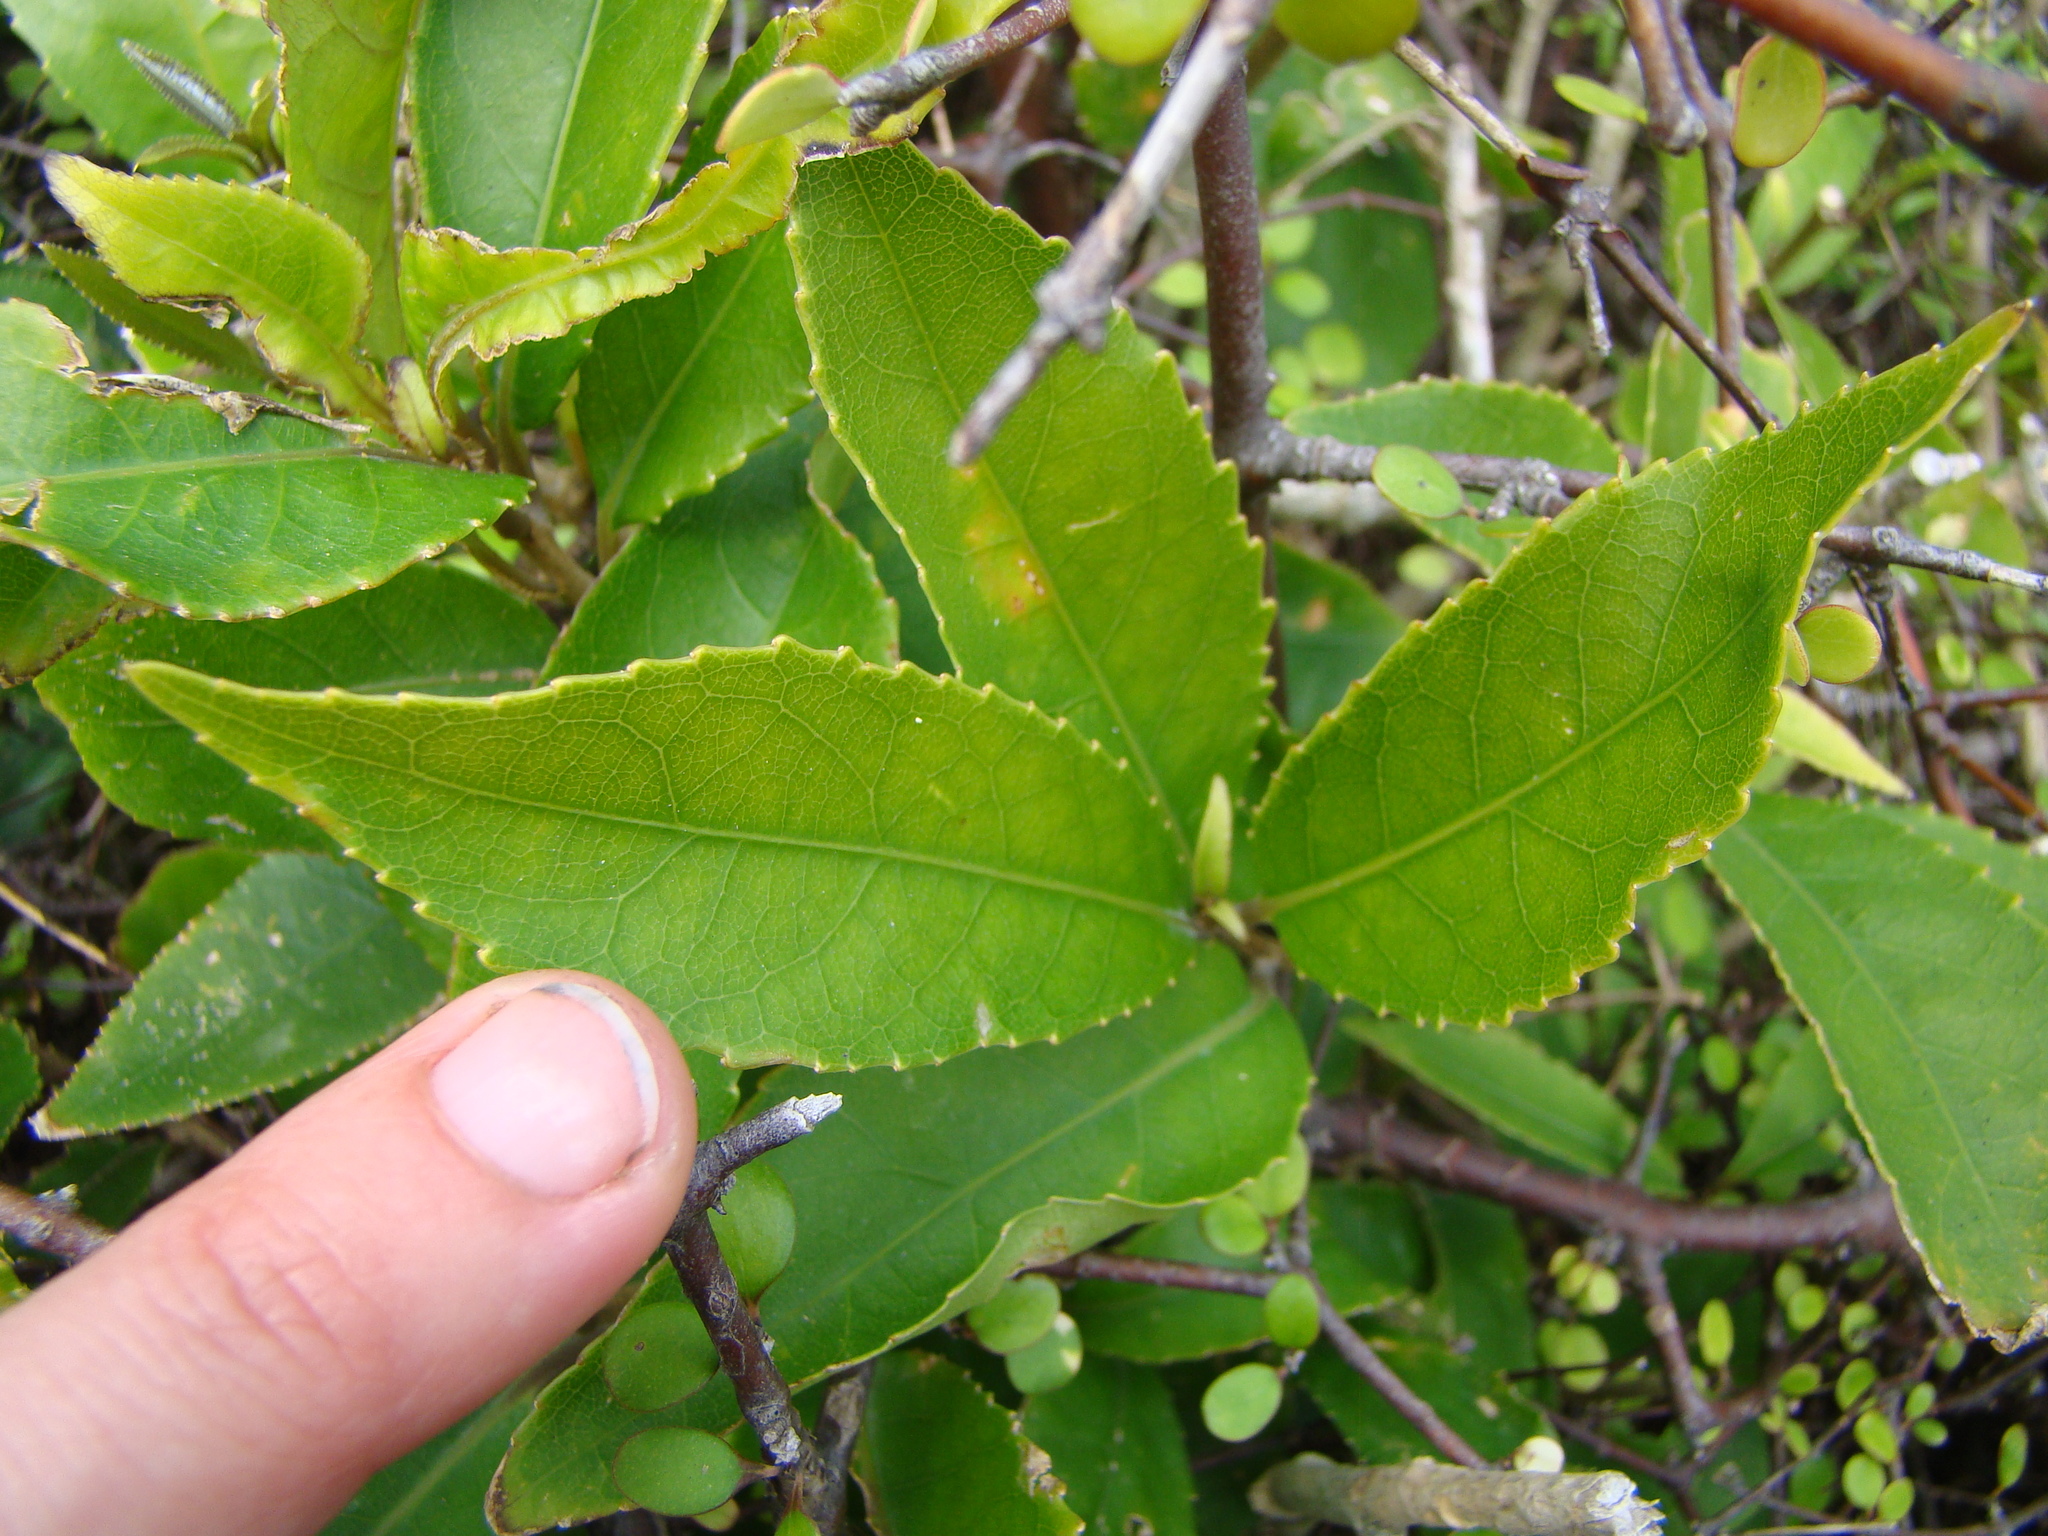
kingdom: Plantae
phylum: Tracheophyta
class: Magnoliopsida
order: Malpighiales
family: Violaceae
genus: Melicytus
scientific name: Melicytus ramiflorus
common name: Mahoe
